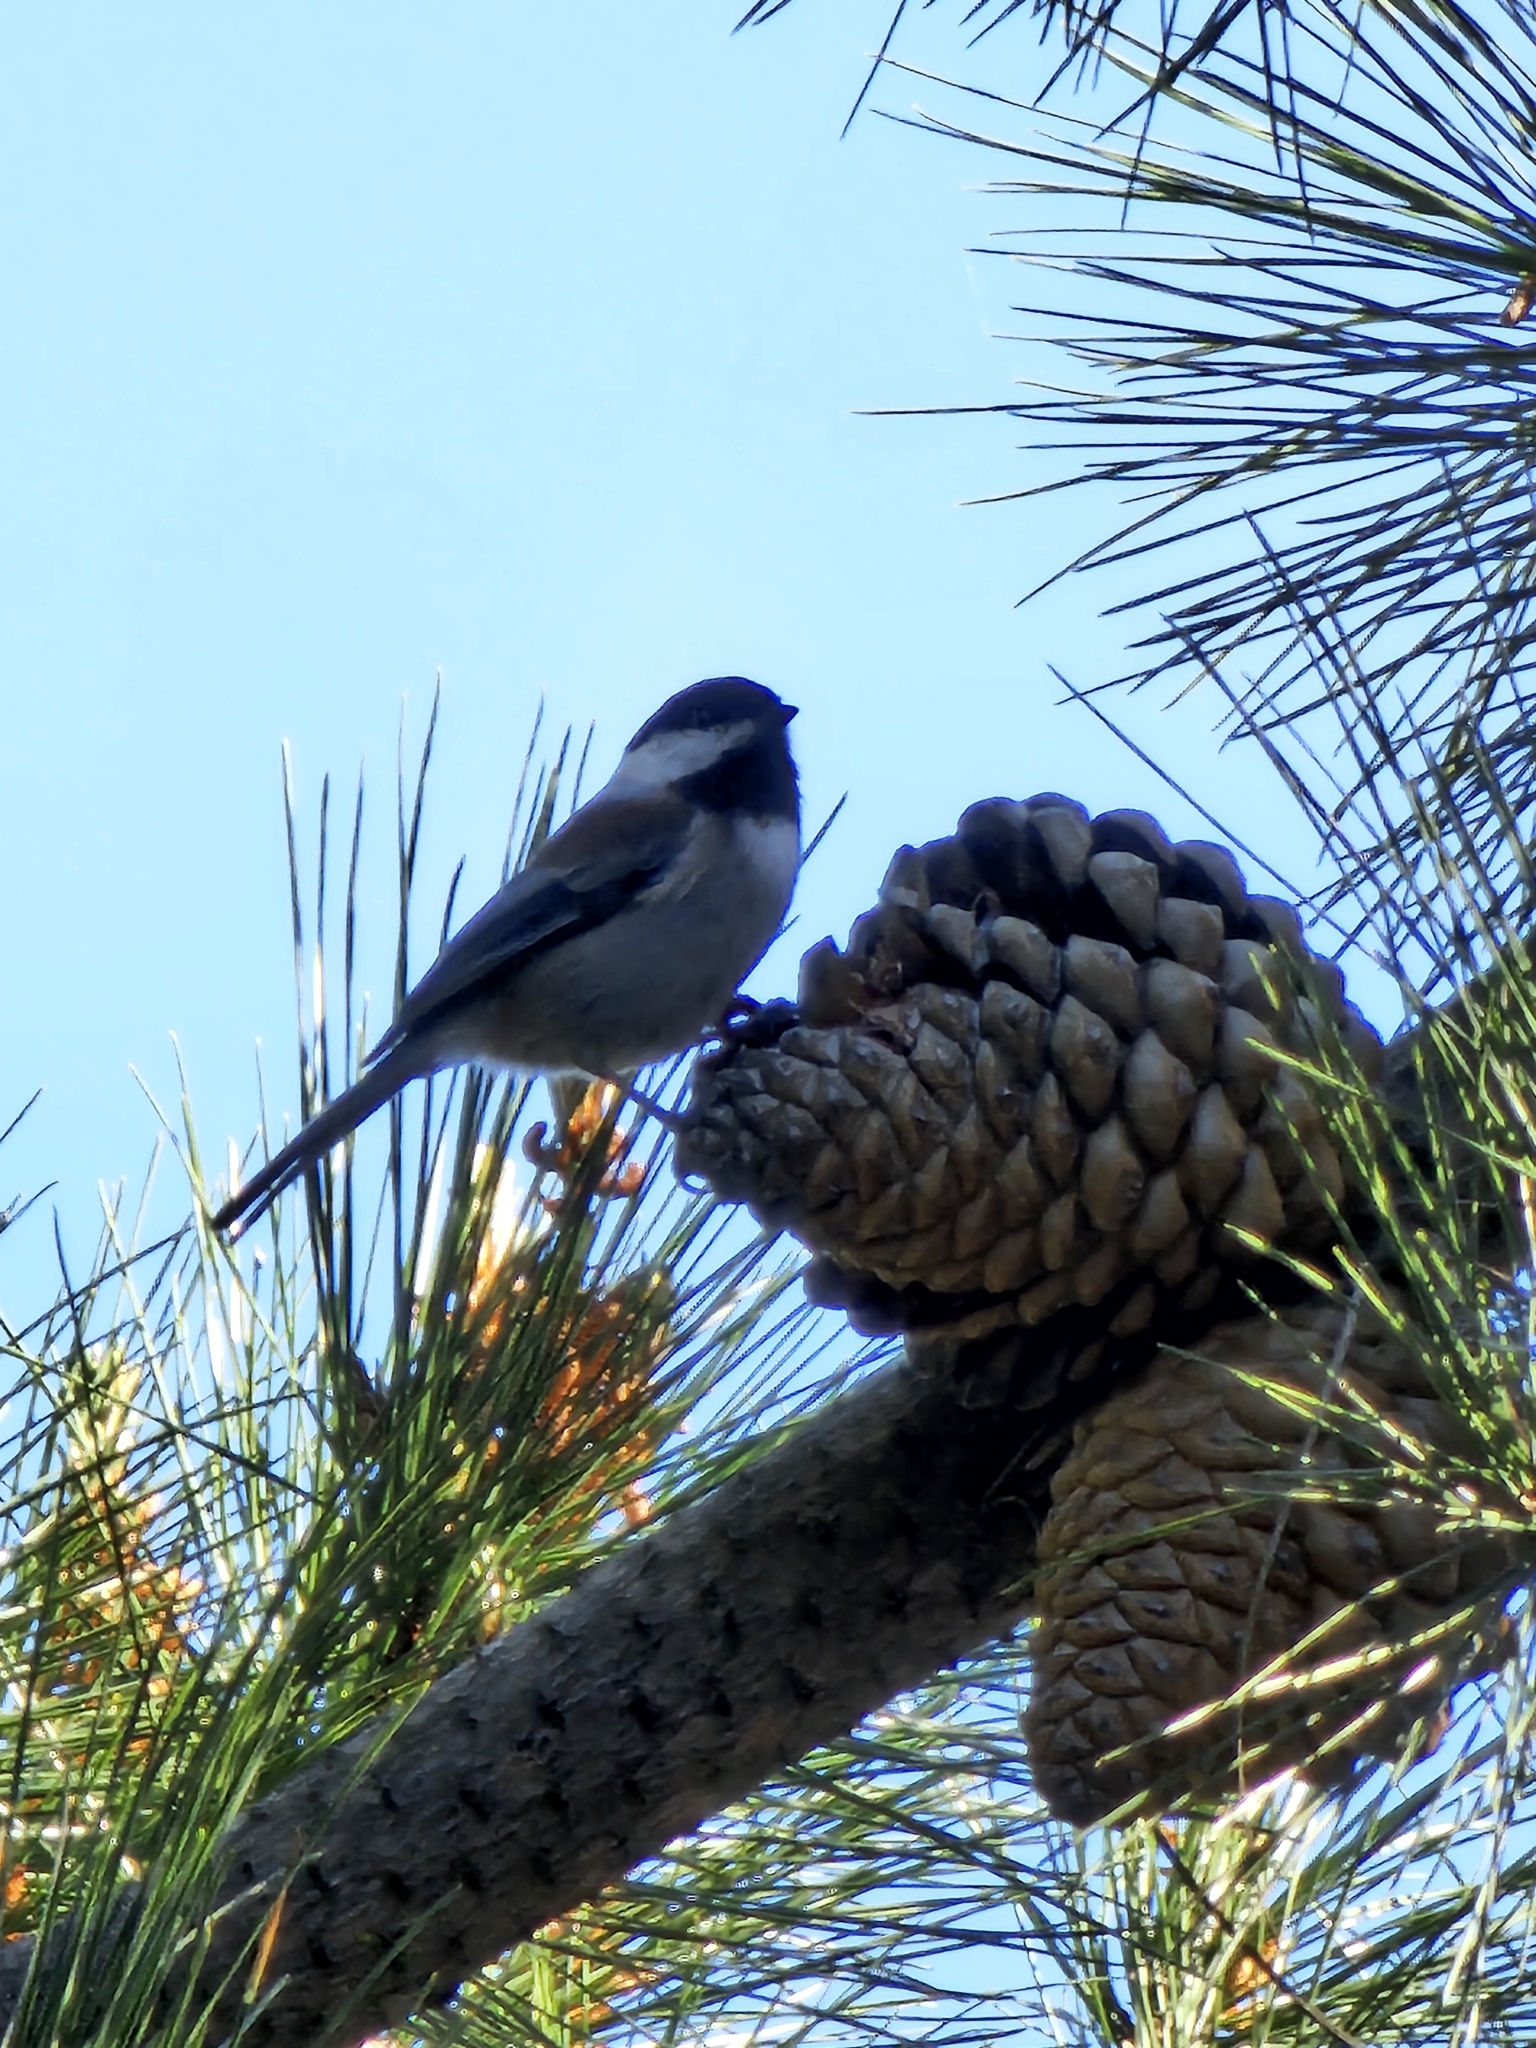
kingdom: Animalia
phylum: Chordata
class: Aves
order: Passeriformes
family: Paridae
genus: Poecile
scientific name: Poecile rufescens
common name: Chestnut-backed chickadee
